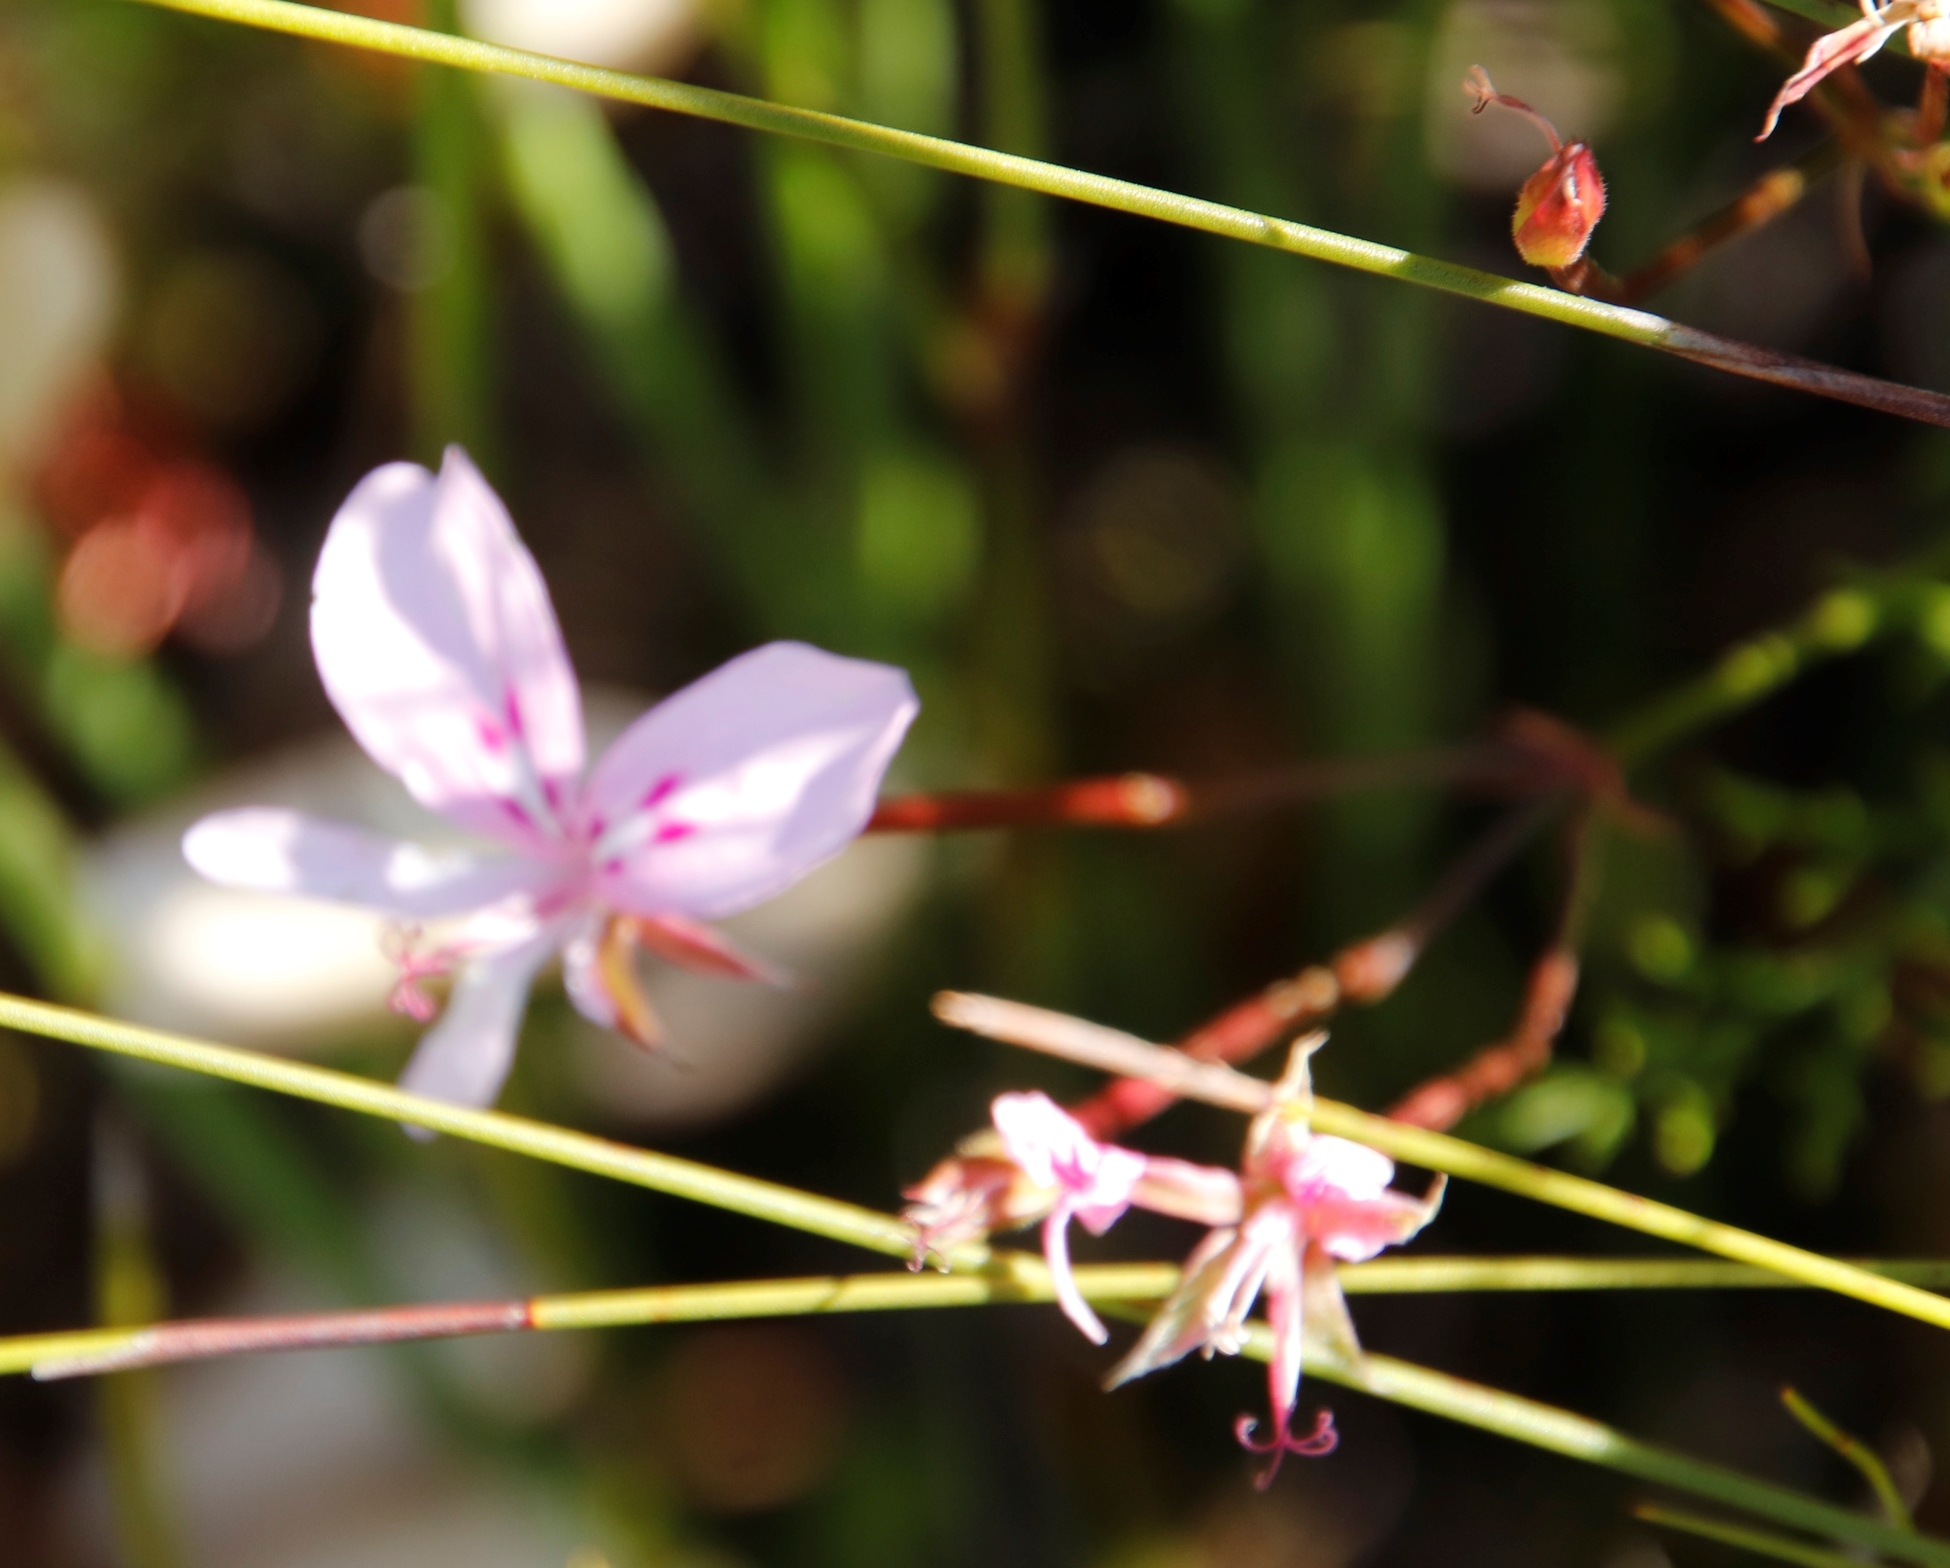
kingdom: Plantae
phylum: Tracheophyta
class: Magnoliopsida
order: Geraniales
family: Geraniaceae
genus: Pelargonium
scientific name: Pelargonium artemisiifolium
